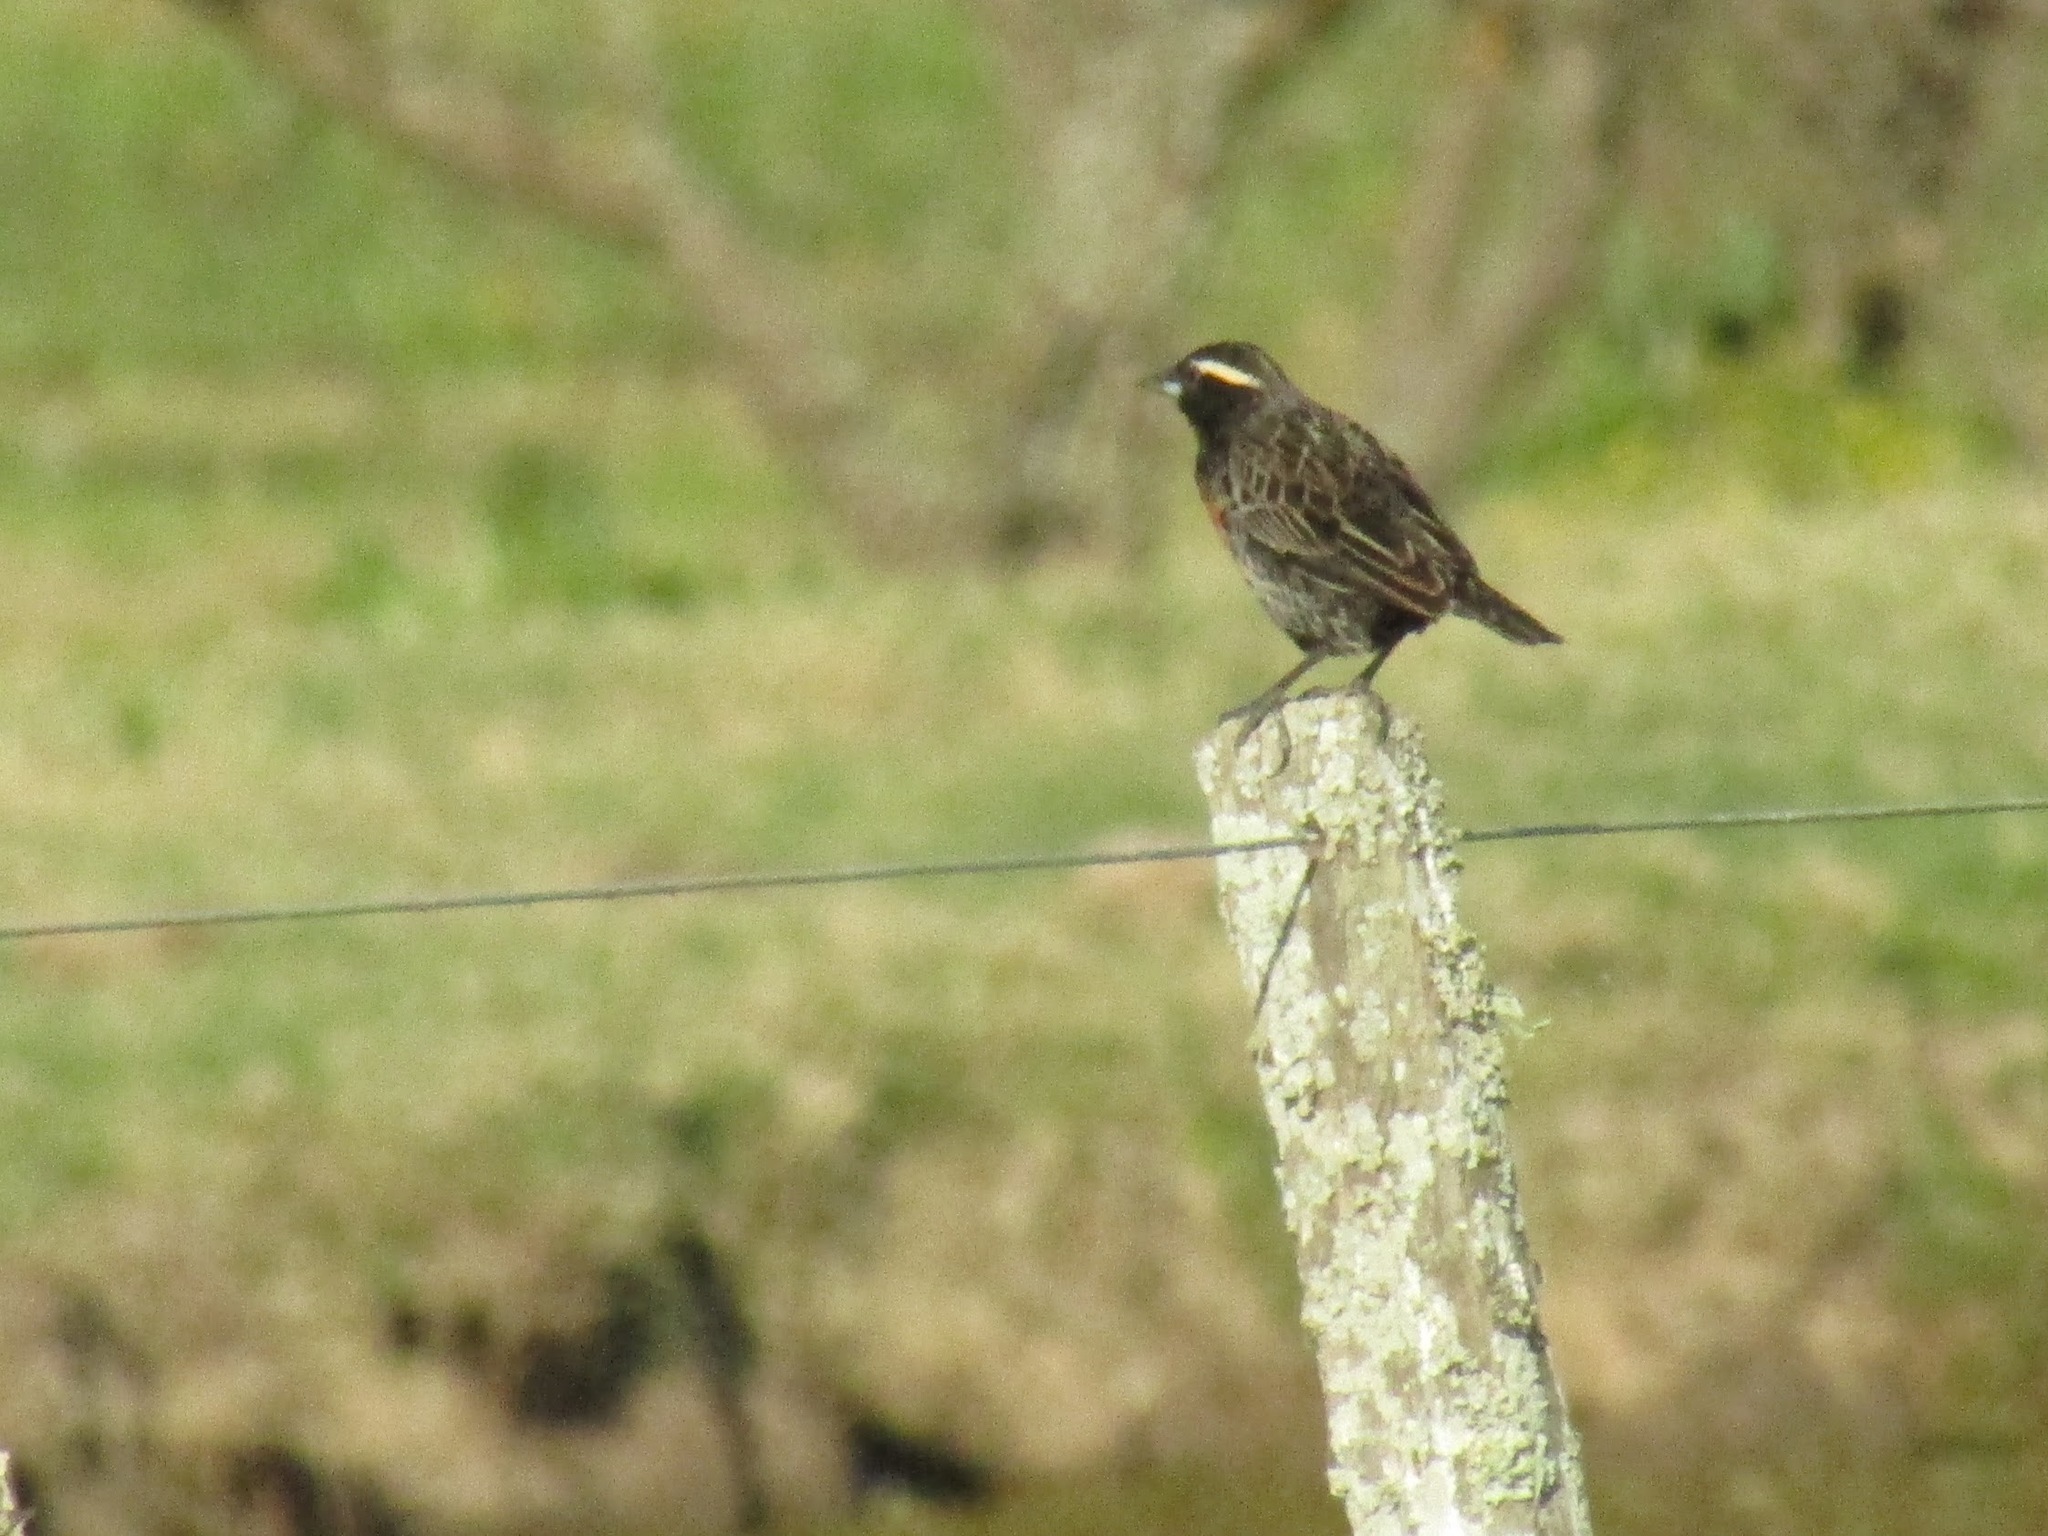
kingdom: Animalia
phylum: Chordata
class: Aves
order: Passeriformes
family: Icteridae
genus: Sturnella
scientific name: Sturnella superciliaris
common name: White-browed blackbird
